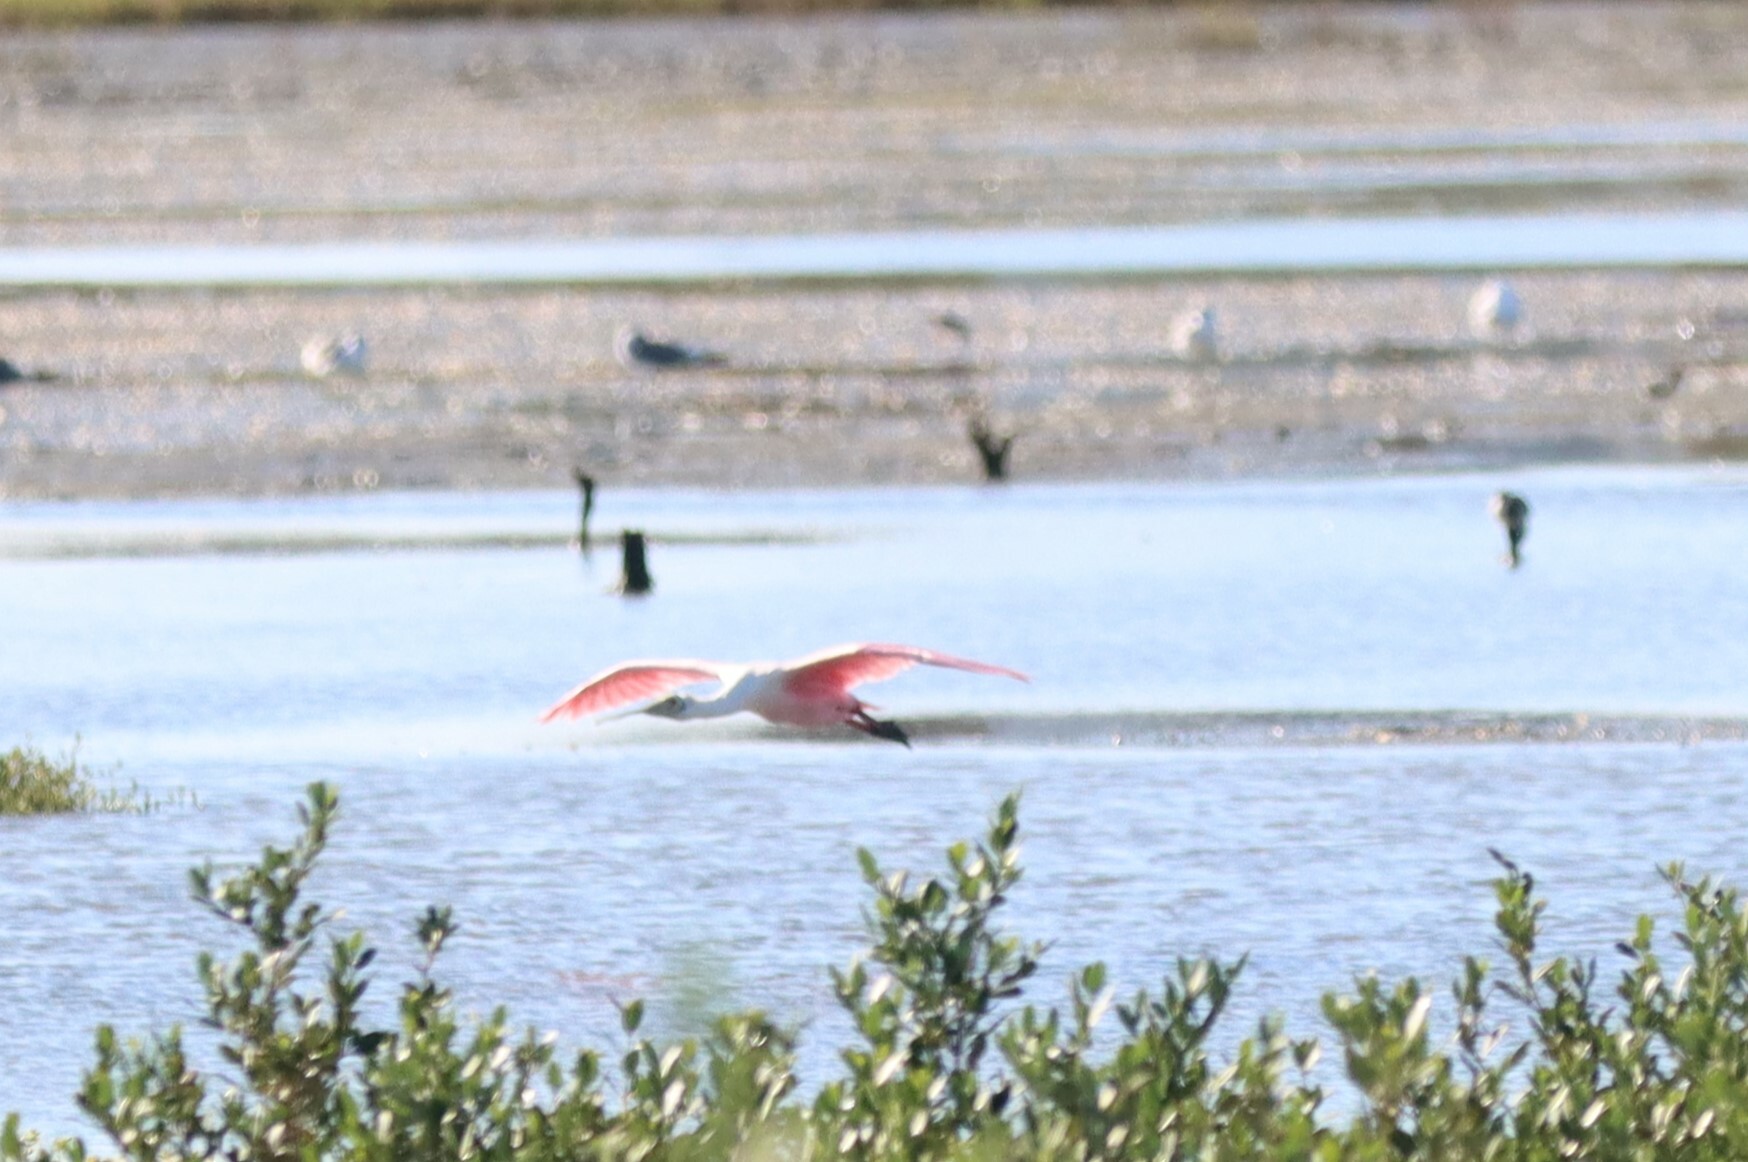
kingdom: Animalia
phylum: Chordata
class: Aves
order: Pelecaniformes
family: Threskiornithidae
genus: Platalea
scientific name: Platalea ajaja
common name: Roseate spoonbill
